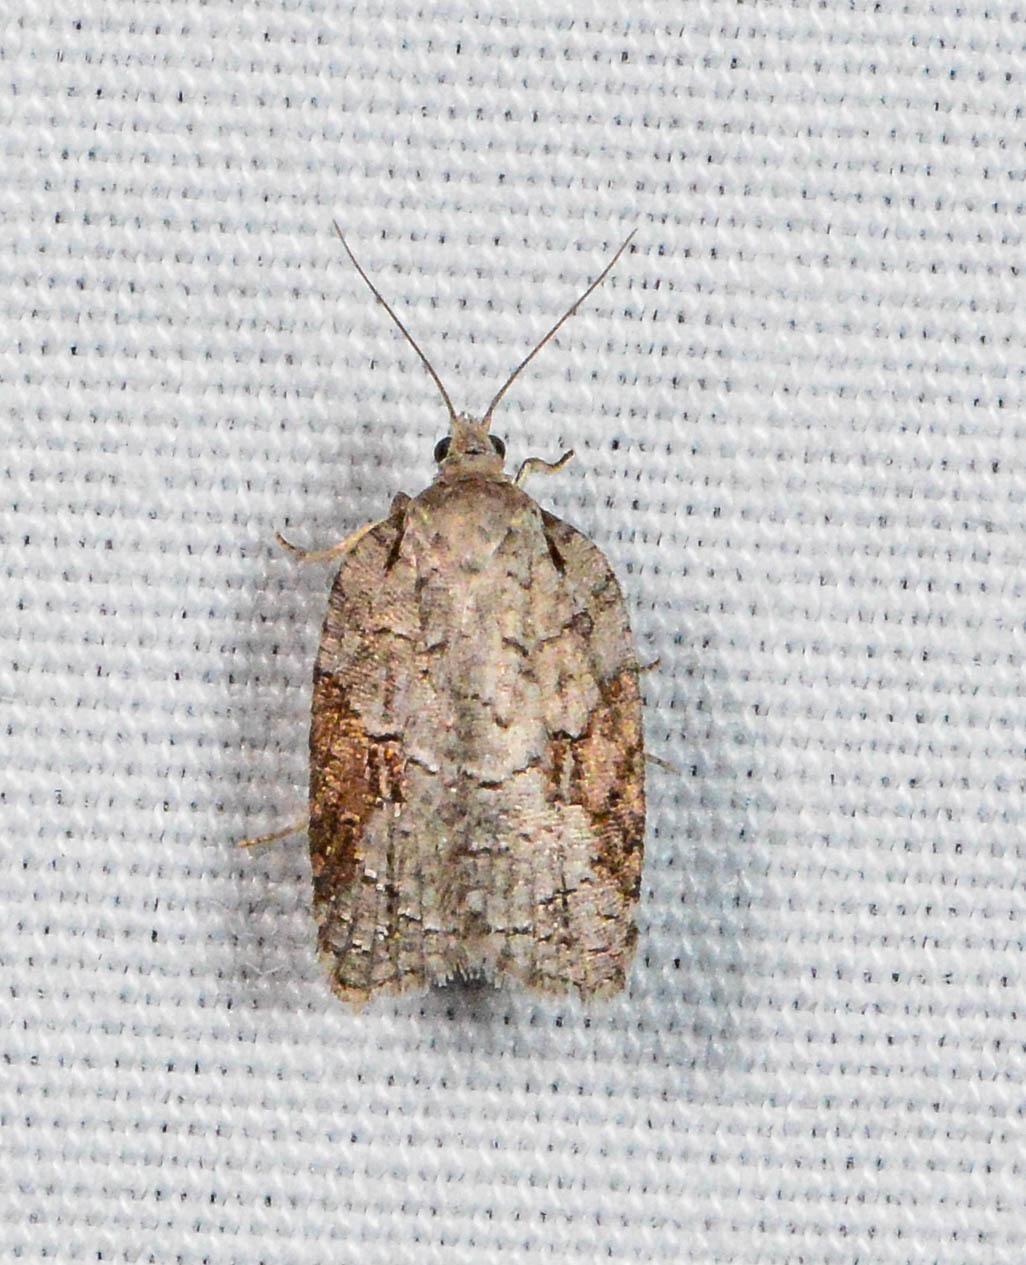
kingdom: Animalia
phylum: Arthropoda
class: Insecta
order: Lepidoptera
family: Tortricidae
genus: Acleris
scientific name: Acleris ptychogrammos
